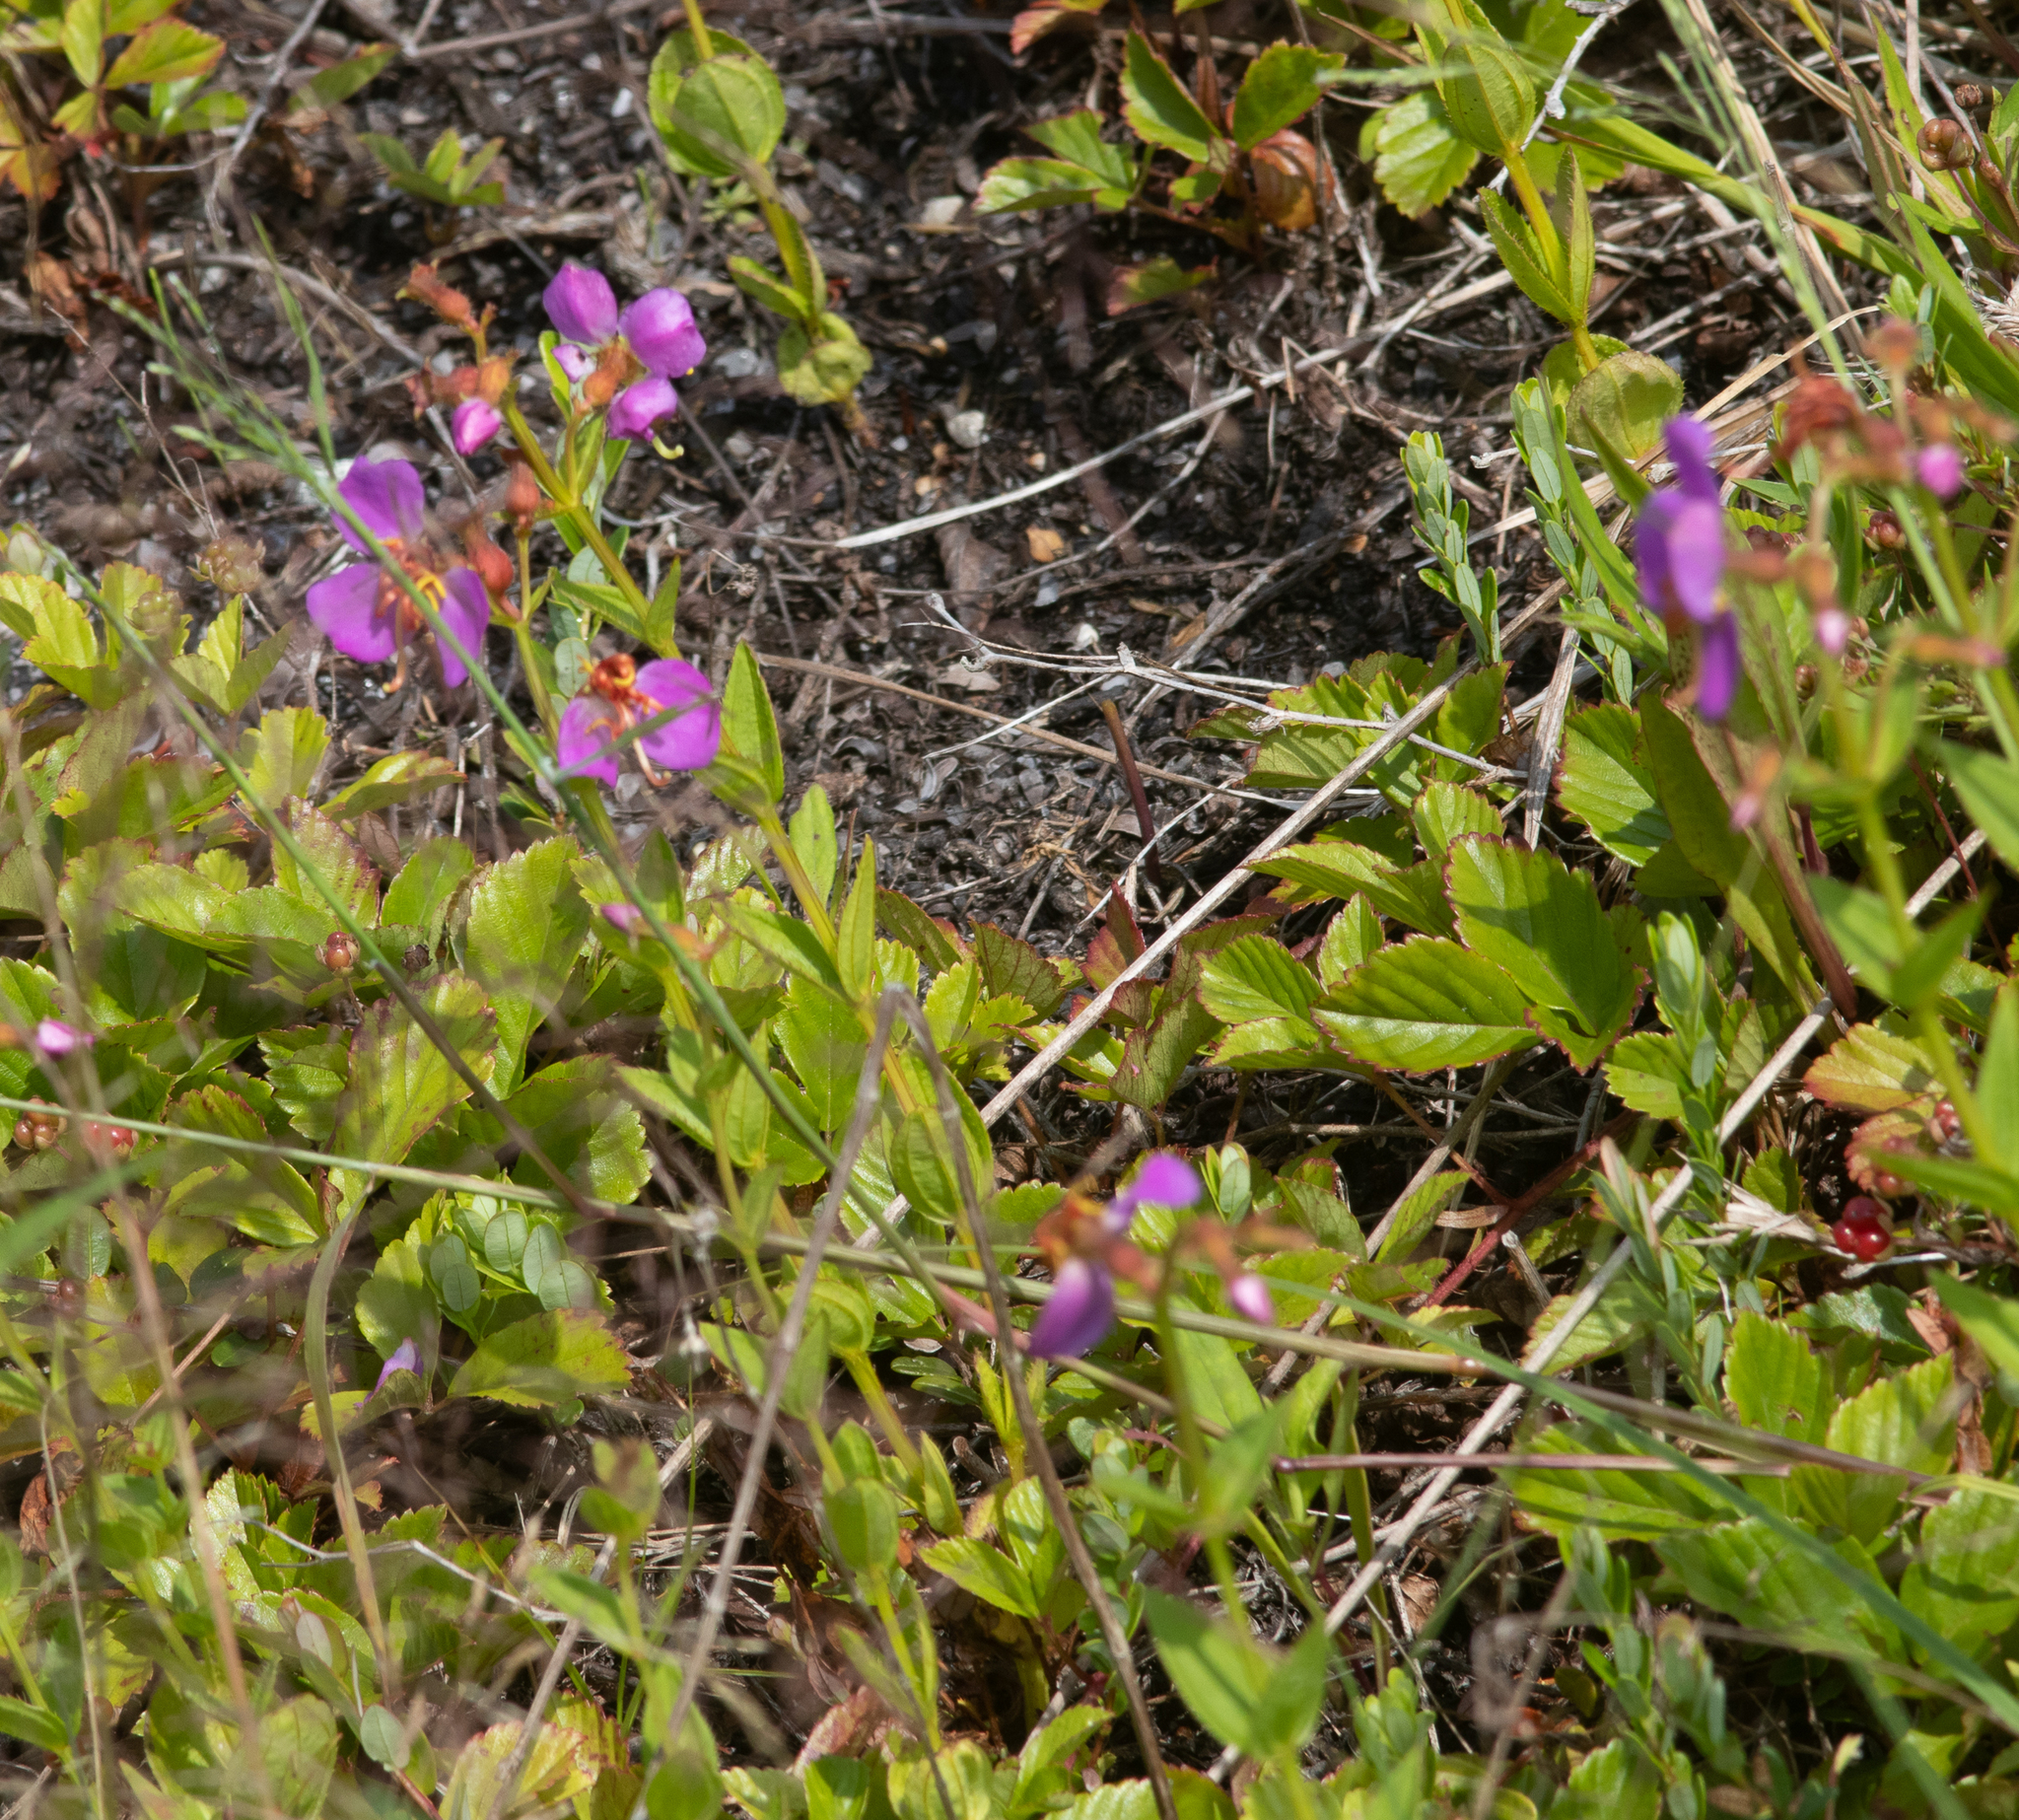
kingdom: Plantae
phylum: Tracheophyta
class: Magnoliopsida
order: Myrtales
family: Melastomataceae
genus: Rhexia
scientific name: Rhexia virginica
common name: Common meadow beauty
